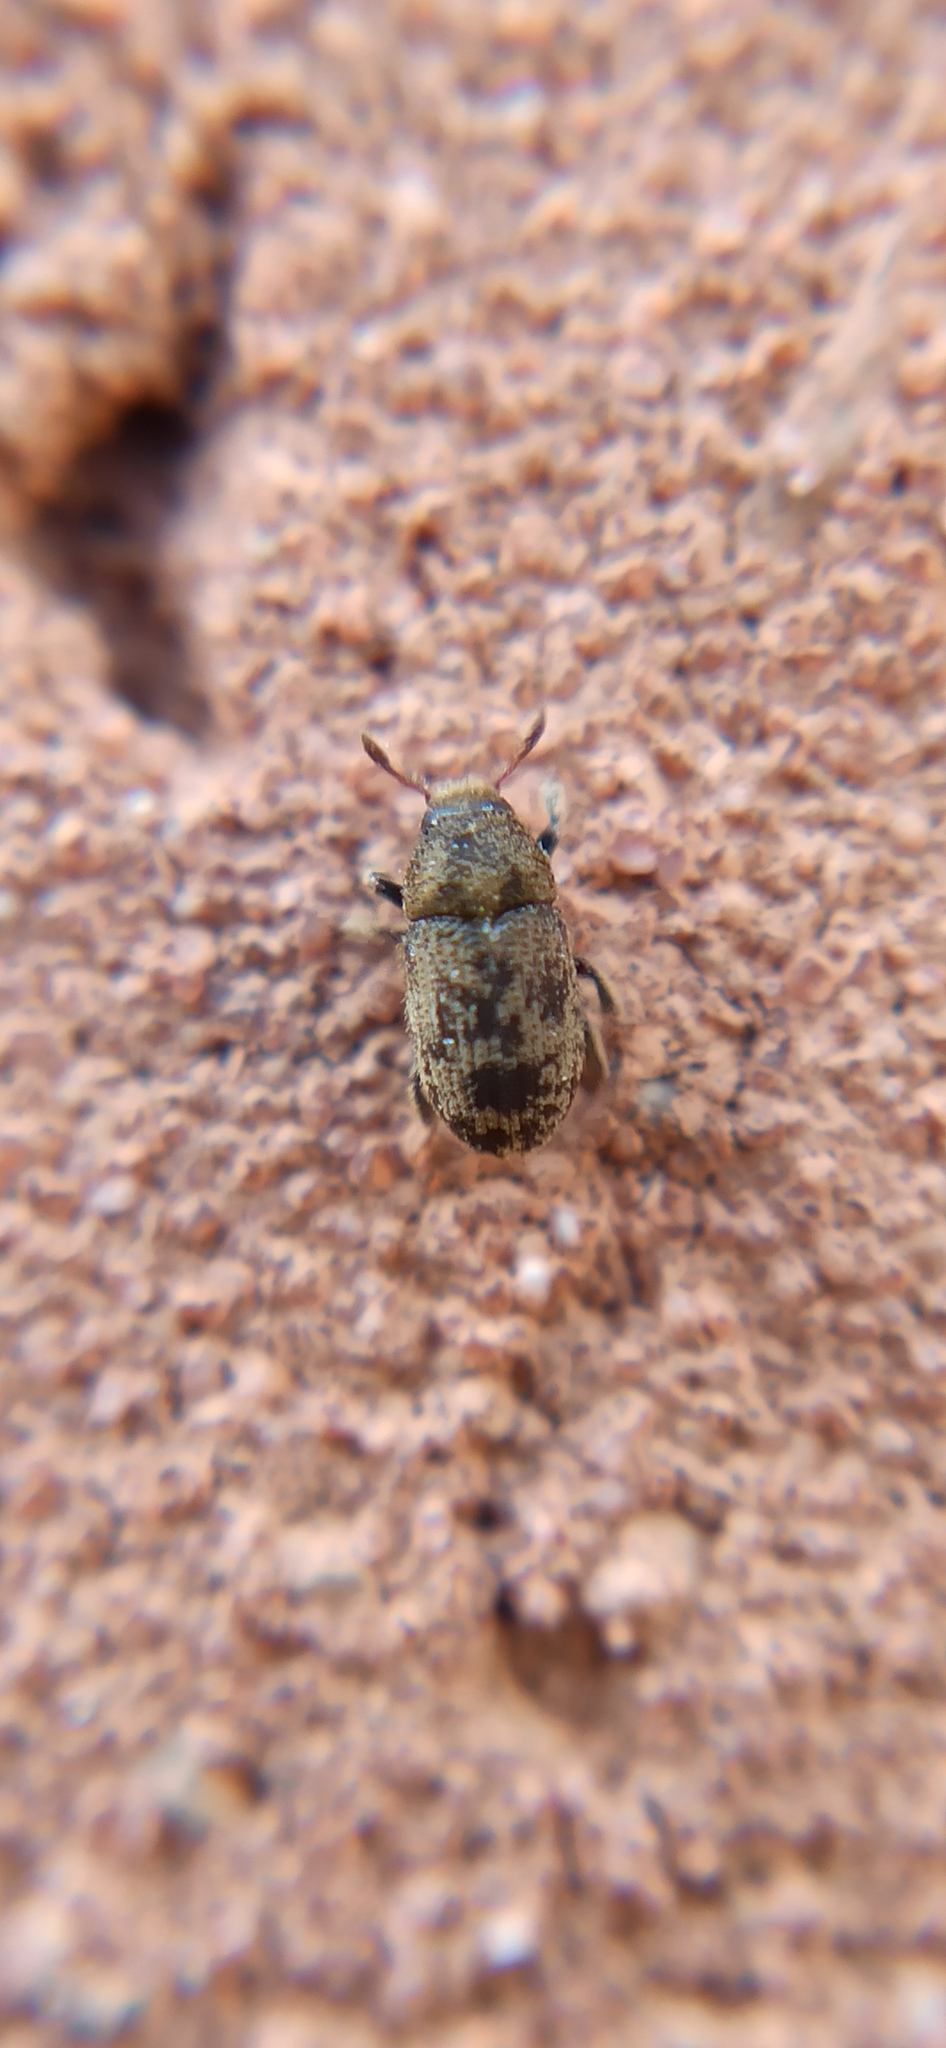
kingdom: Animalia
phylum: Arthropoda
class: Insecta
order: Coleoptera
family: Curculionidae
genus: Hylesinus
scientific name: Hylesinus varius
